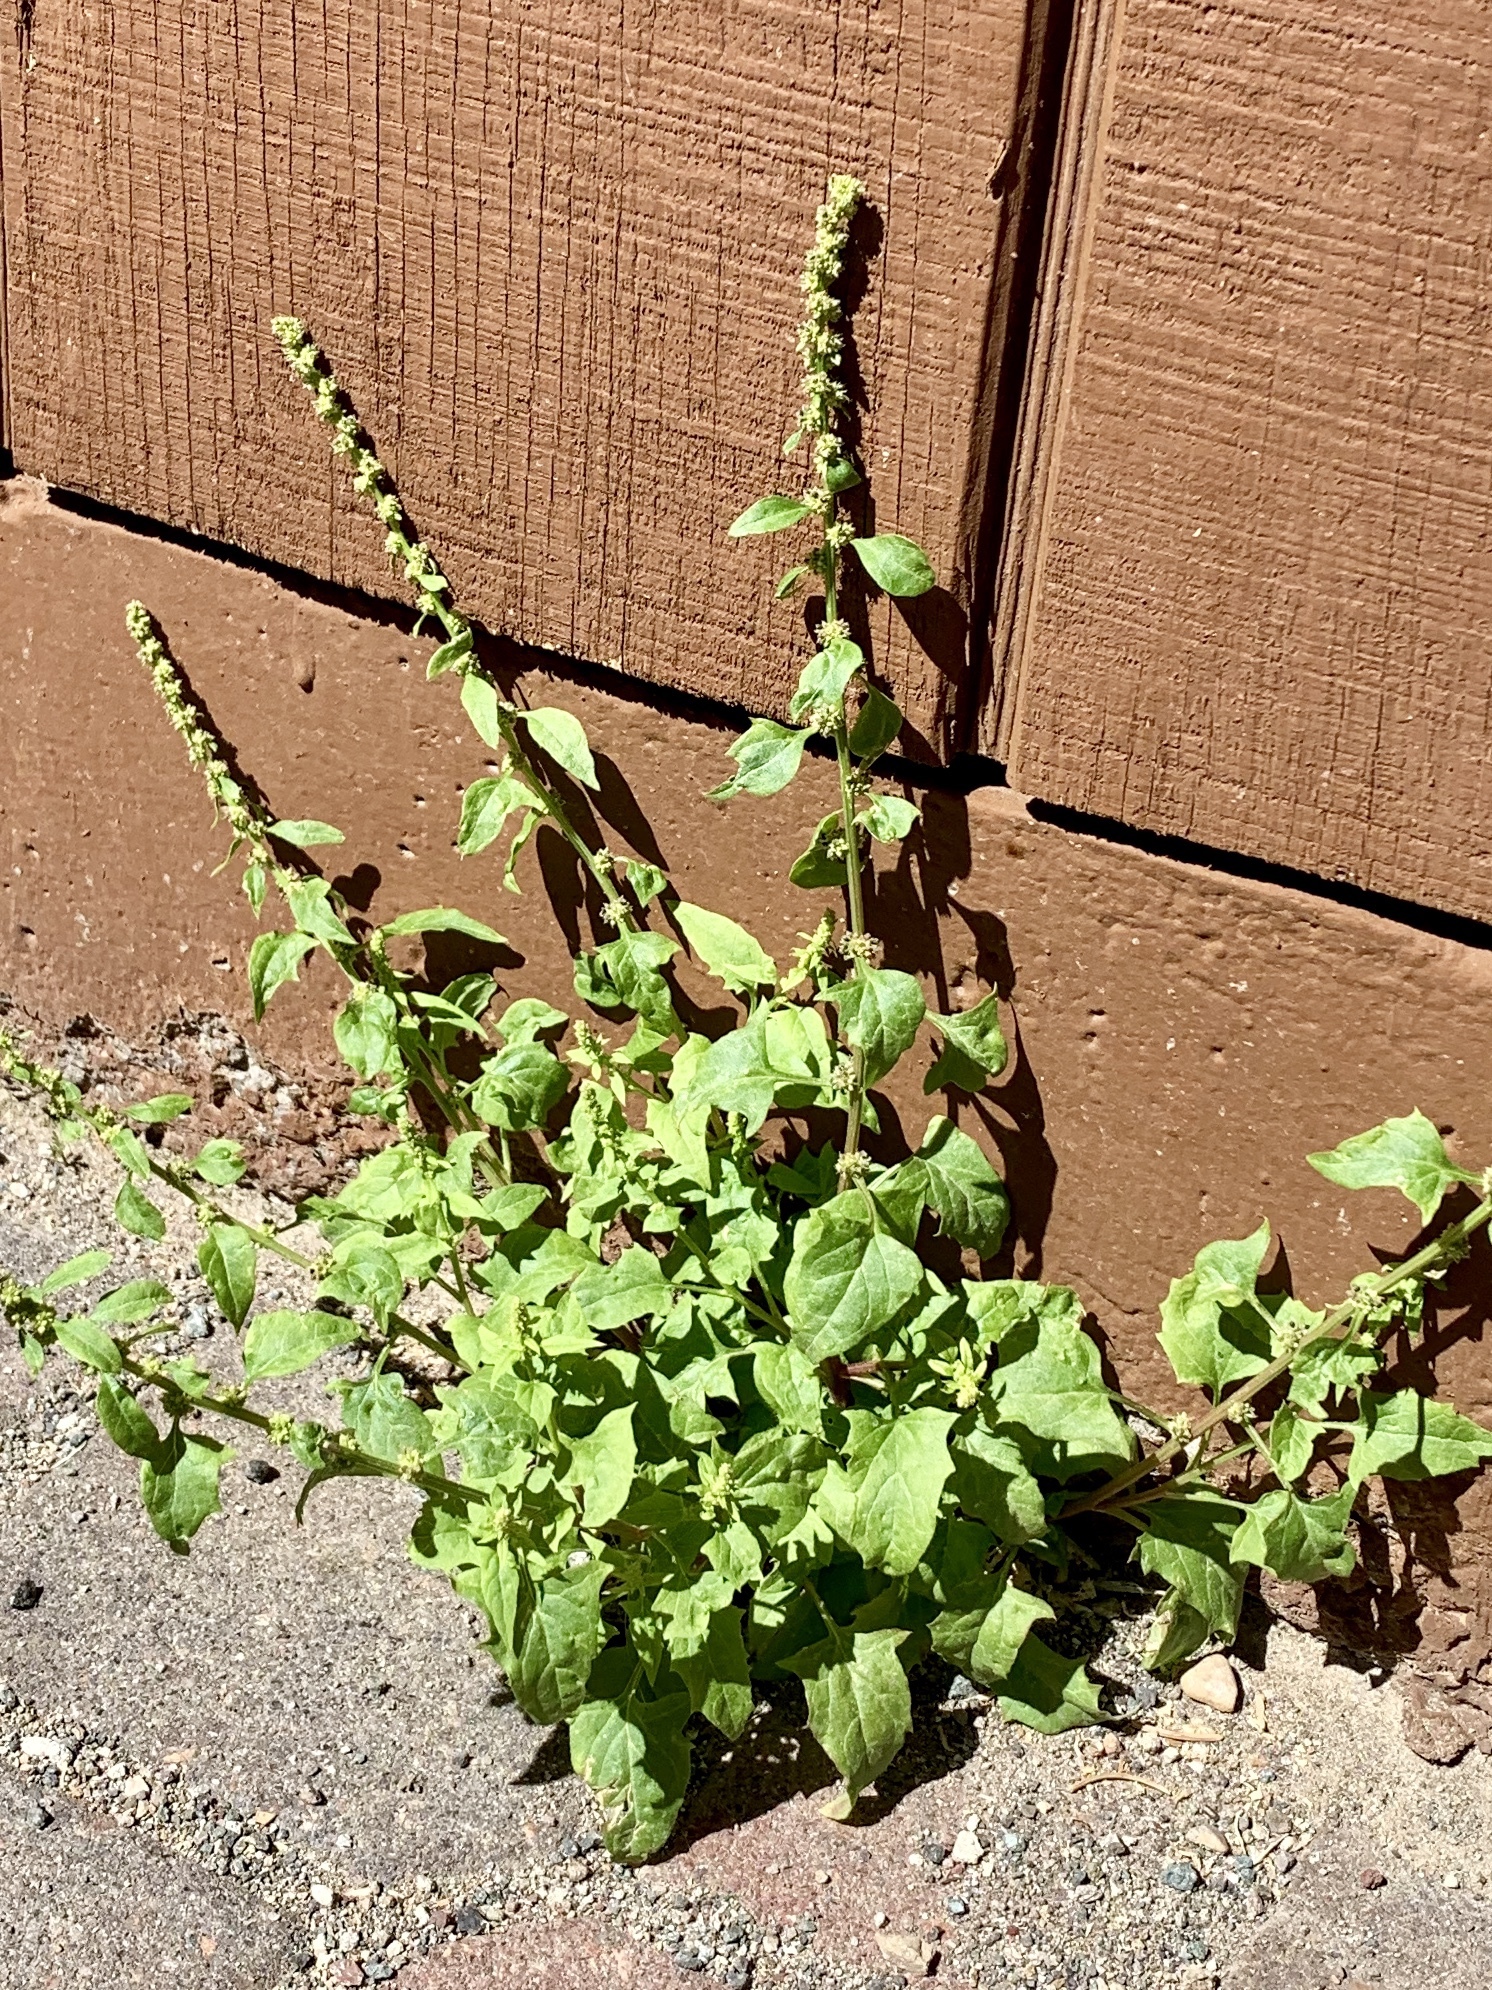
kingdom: Plantae
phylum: Tracheophyta
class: Magnoliopsida
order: Caryophyllales
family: Amaranthaceae
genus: Blitum
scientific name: Blitum capitatum
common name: Strawberry-blight
